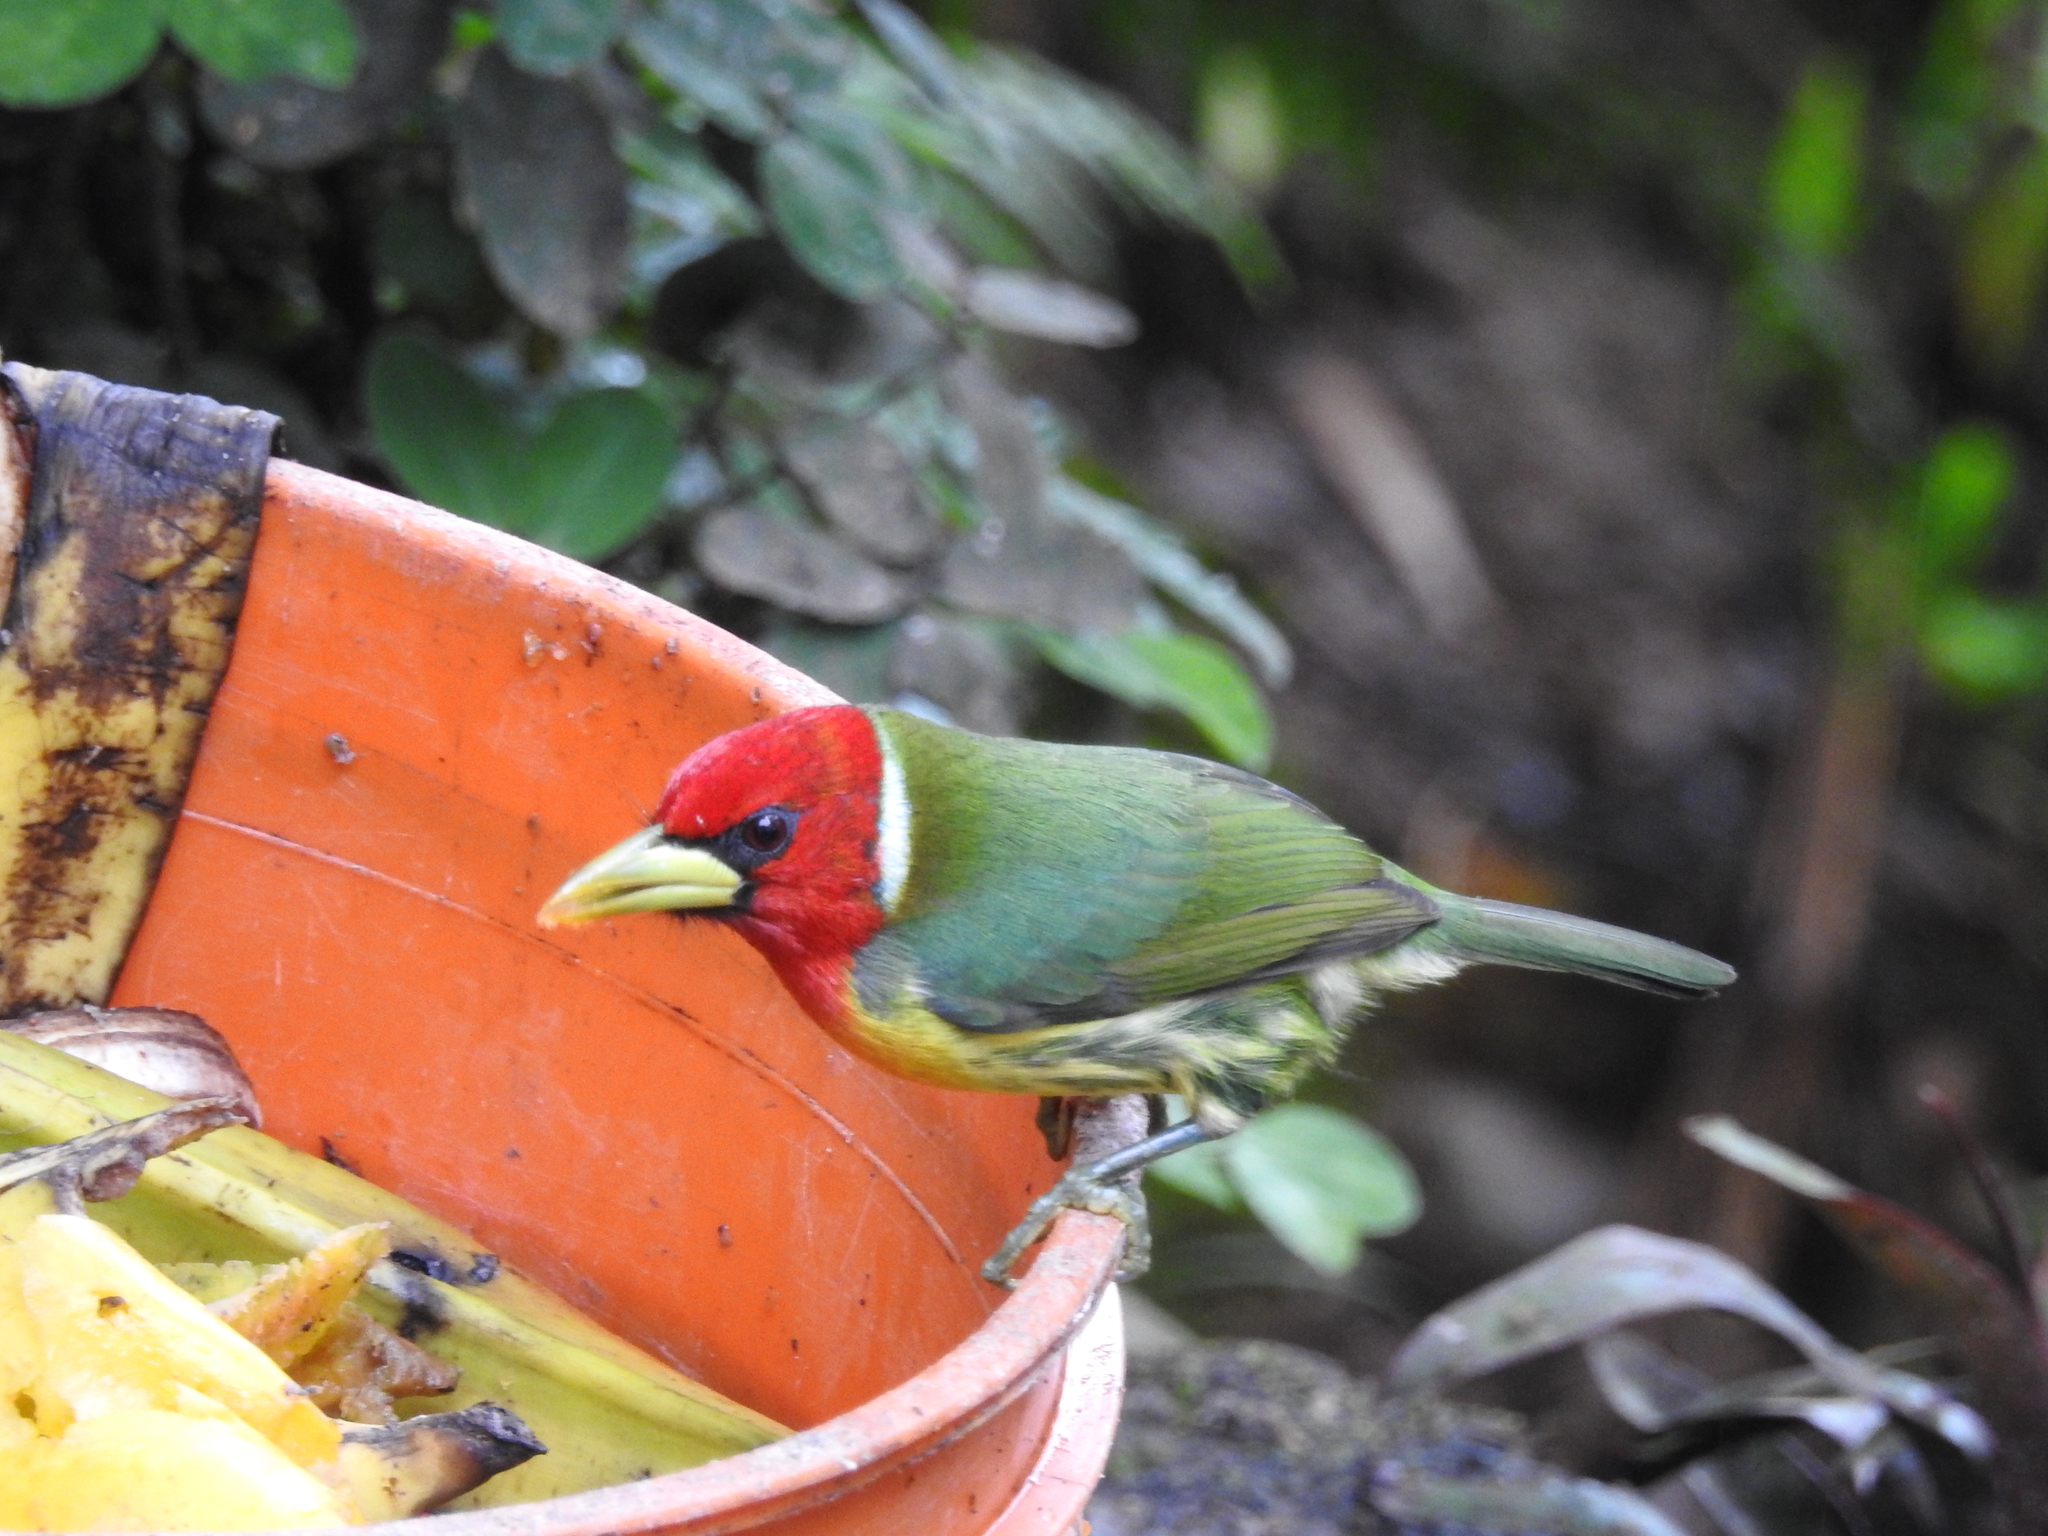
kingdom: Animalia
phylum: Chordata
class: Aves
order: Piciformes
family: Capitonidae
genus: Eubucco
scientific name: Eubucco bourcierii
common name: Red-headed barbet
